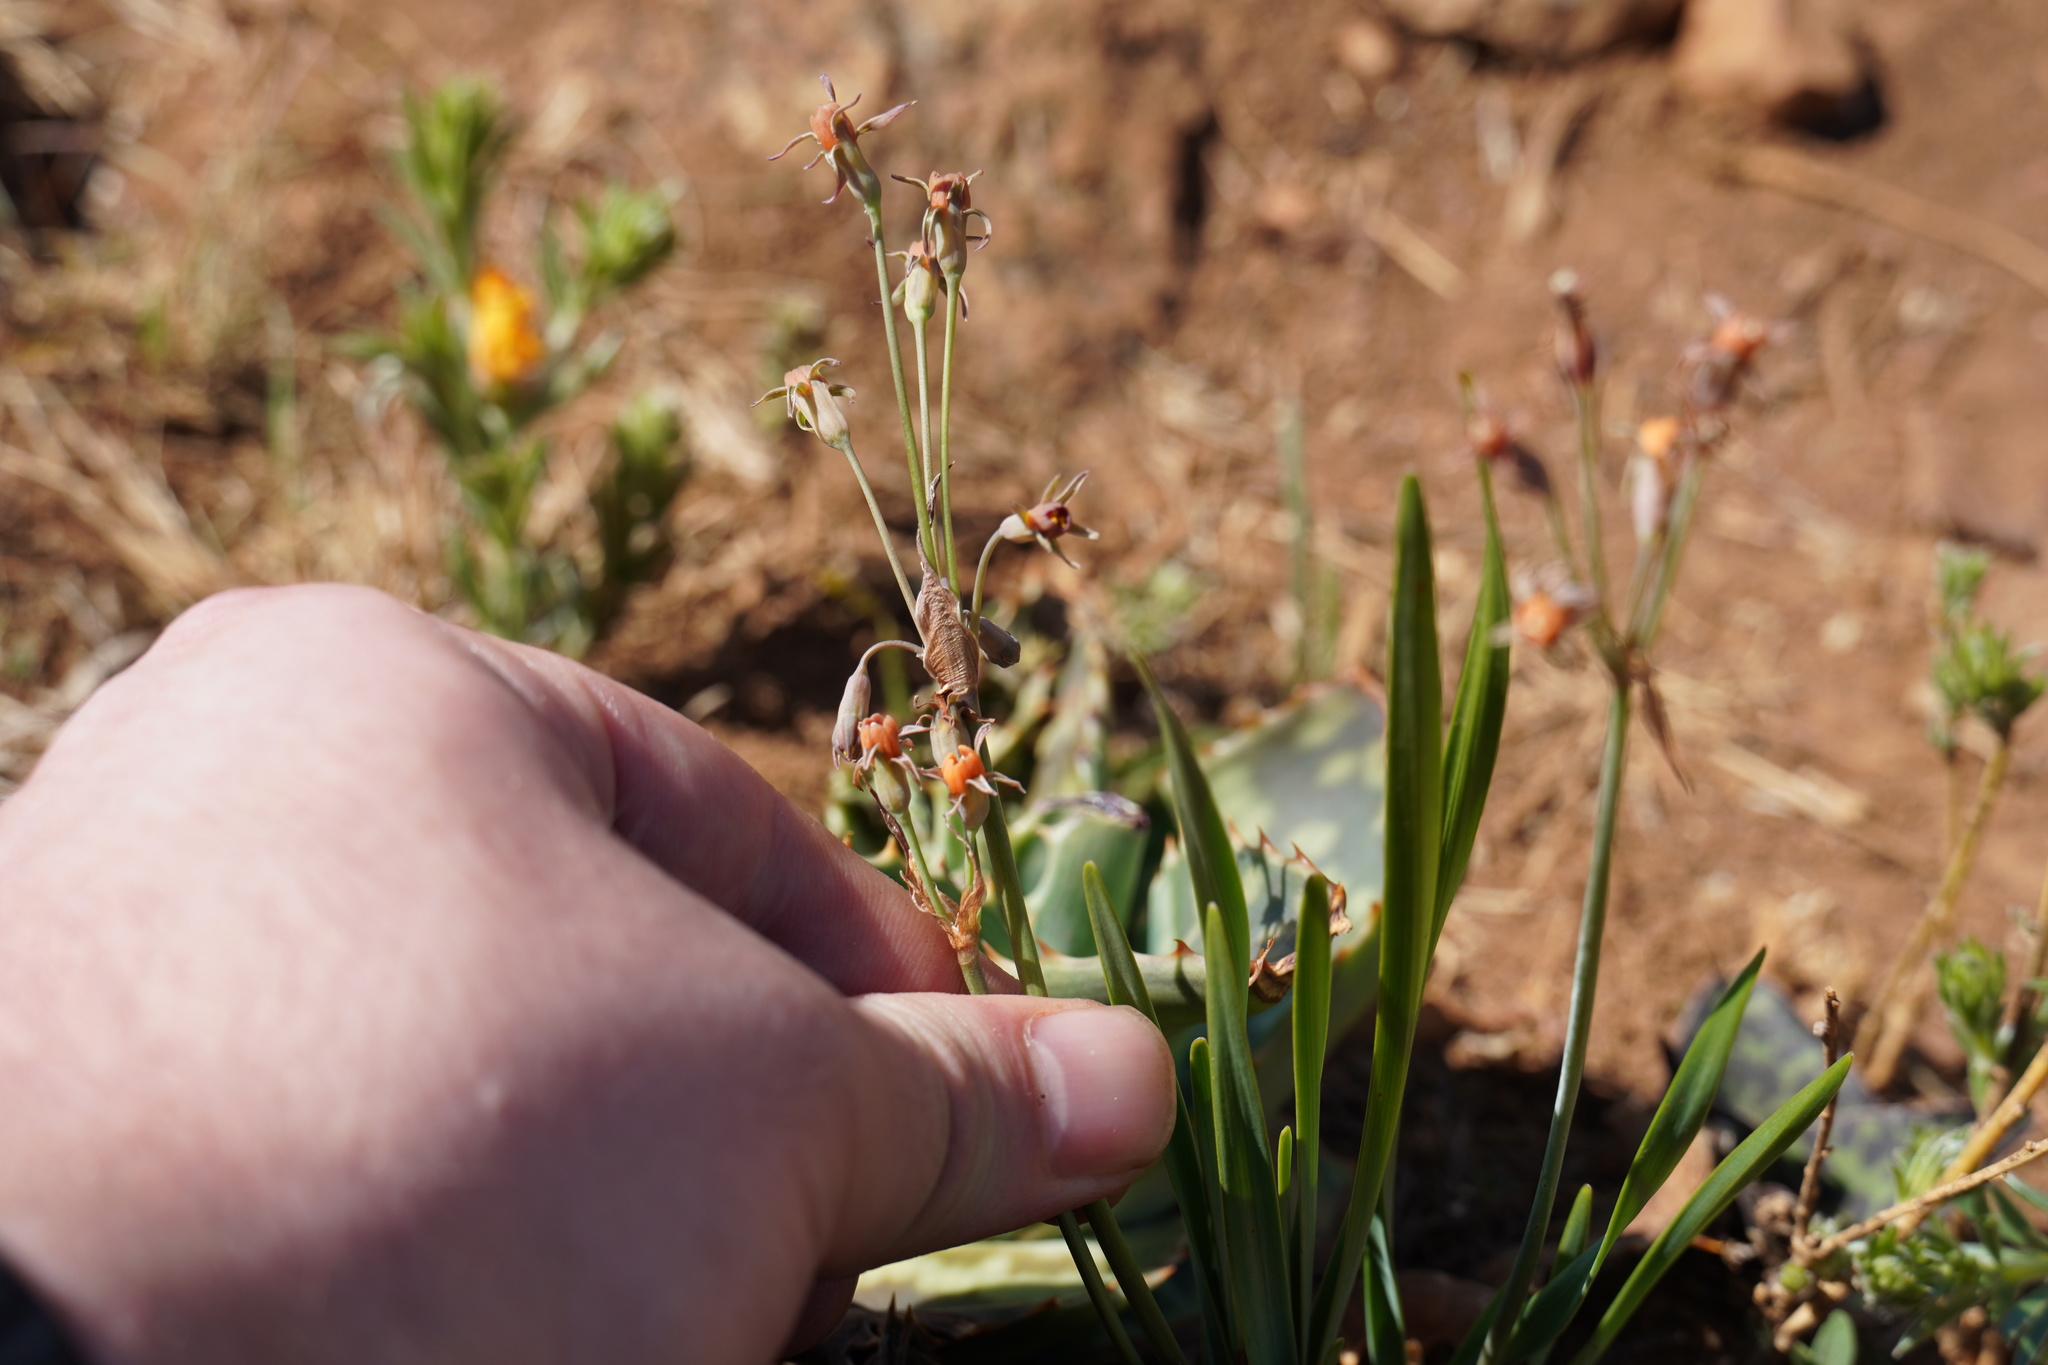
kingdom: Plantae
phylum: Tracheophyta
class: Liliopsida
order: Asparagales
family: Amaryllidaceae
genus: Tulbaghia
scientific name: Tulbaghia acutiloba
